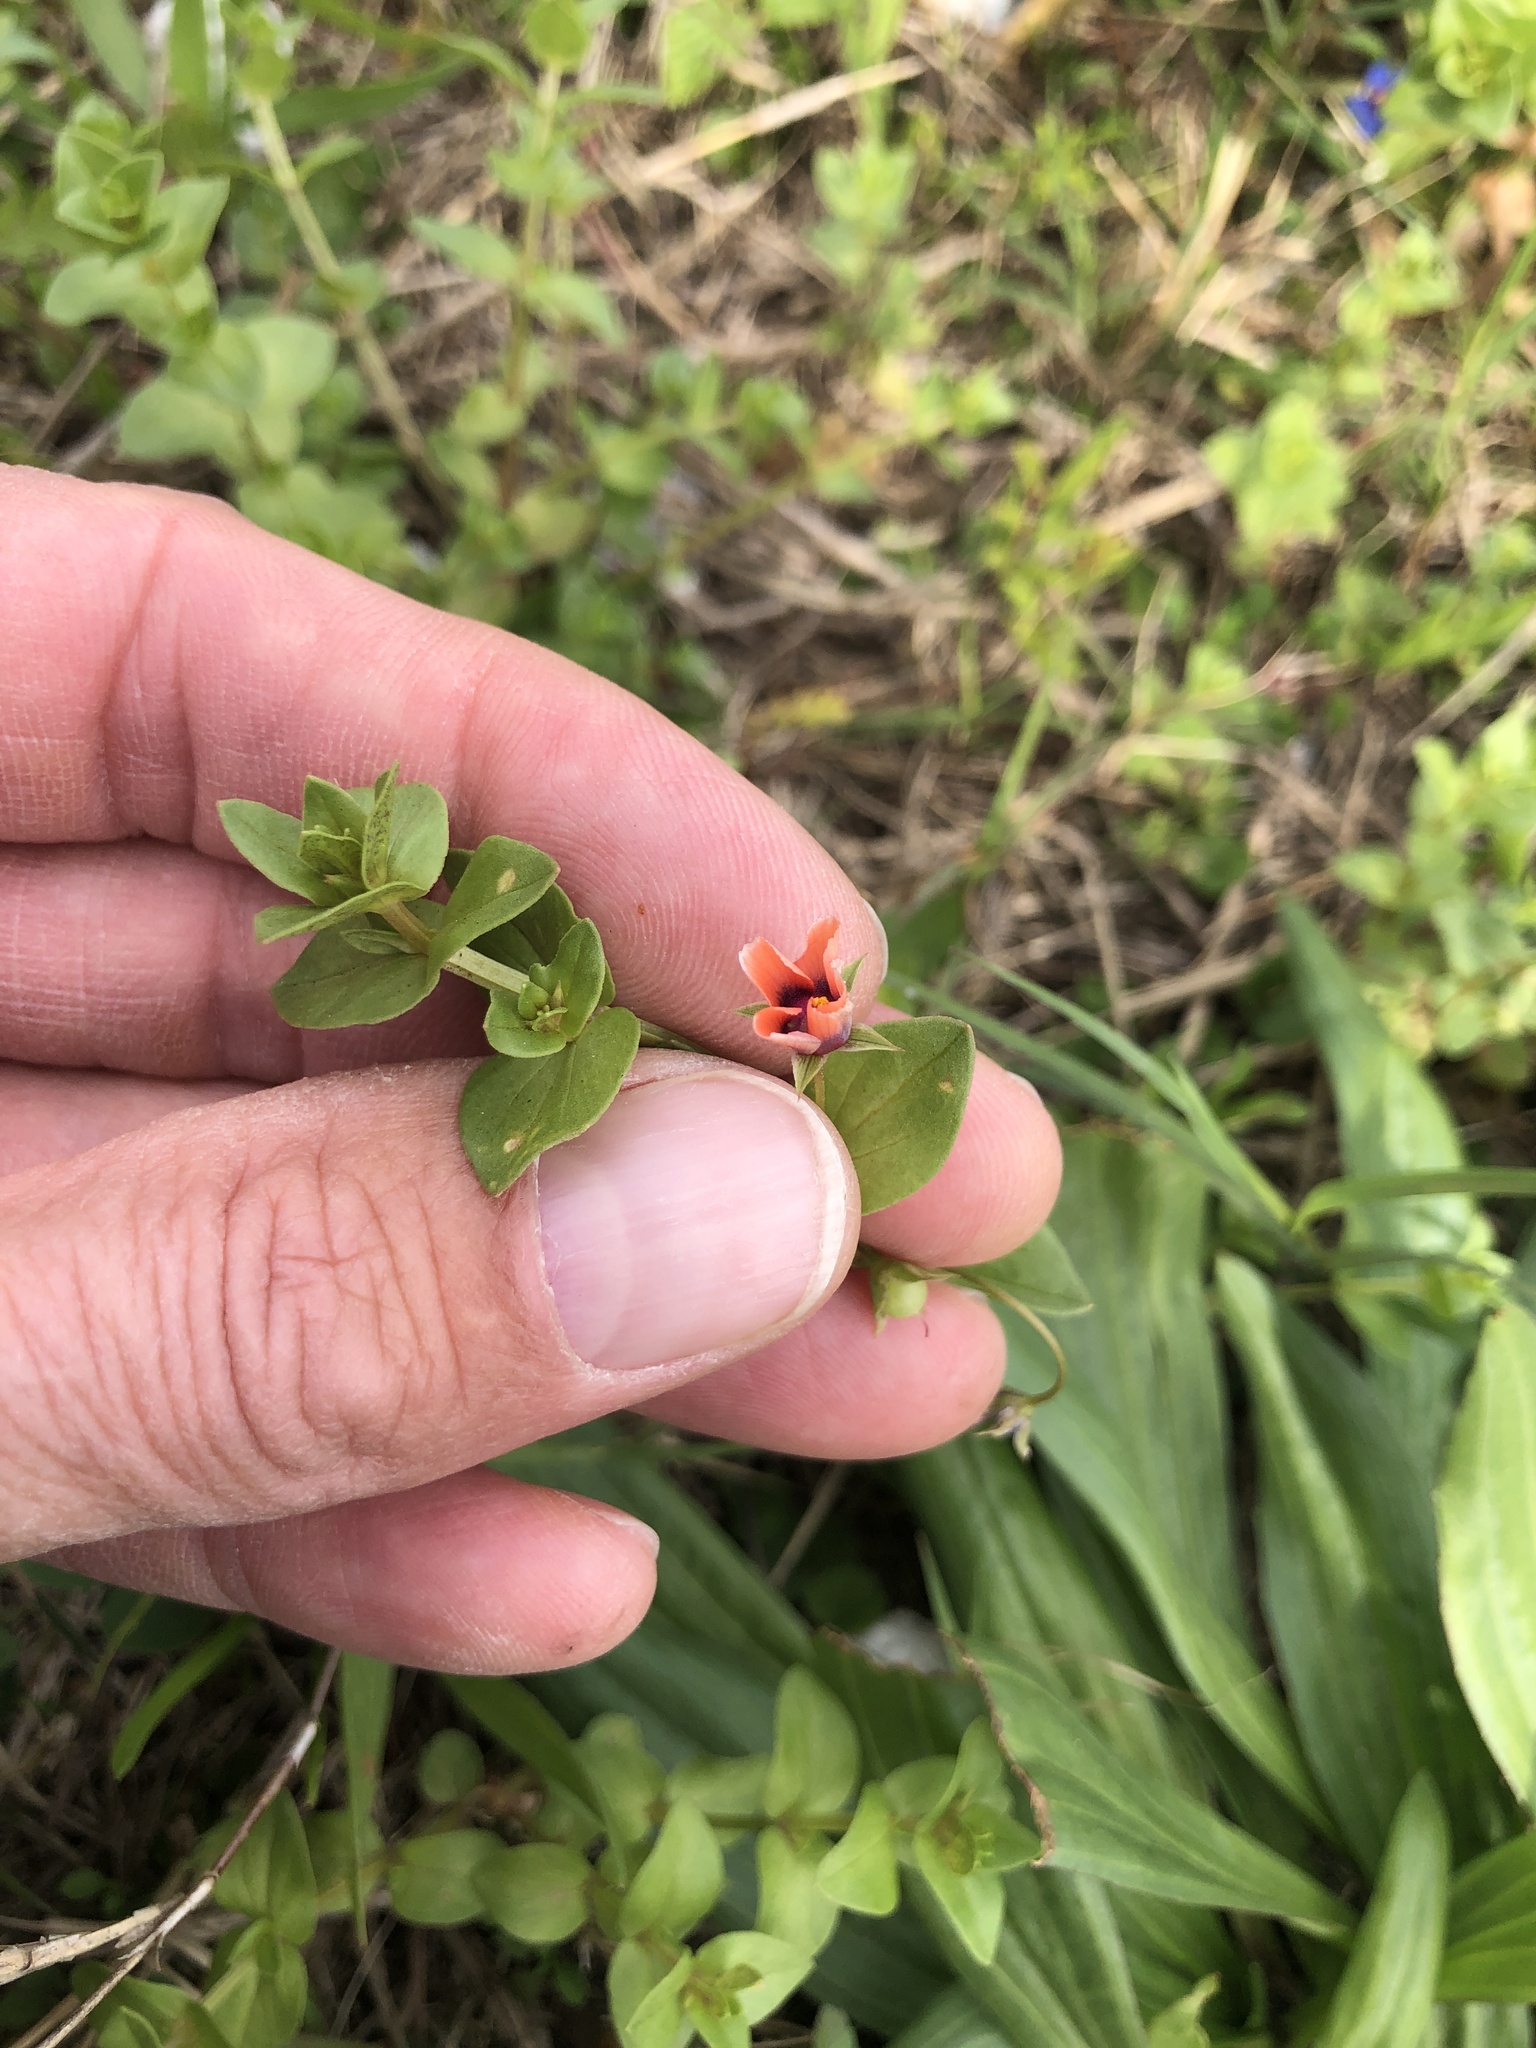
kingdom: Plantae
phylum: Tracheophyta
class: Magnoliopsida
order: Ericales
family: Primulaceae
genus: Lysimachia
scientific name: Lysimachia arvensis
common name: Scarlet pimpernel
